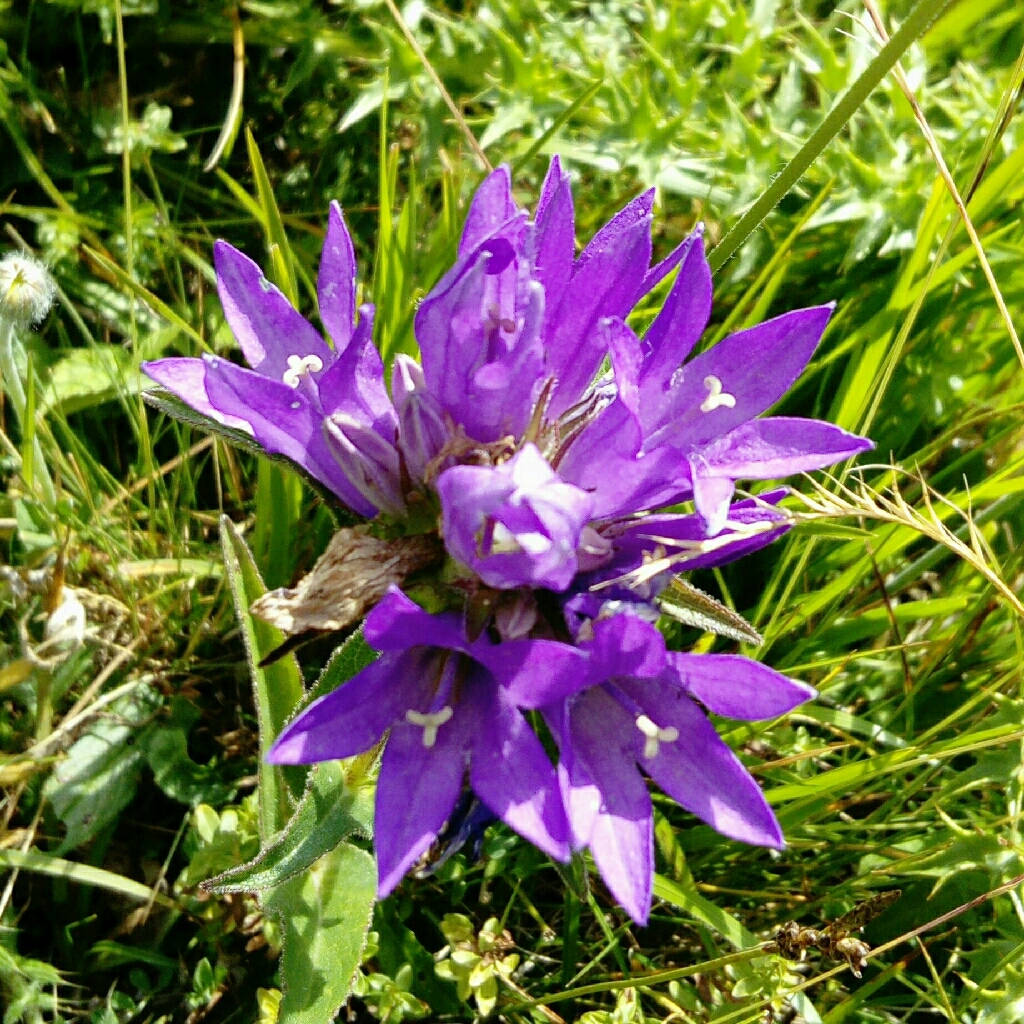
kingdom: Plantae
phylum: Tracheophyta
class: Magnoliopsida
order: Asterales
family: Campanulaceae
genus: Campanula
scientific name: Campanula glomerata
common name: Clustered bellflower
